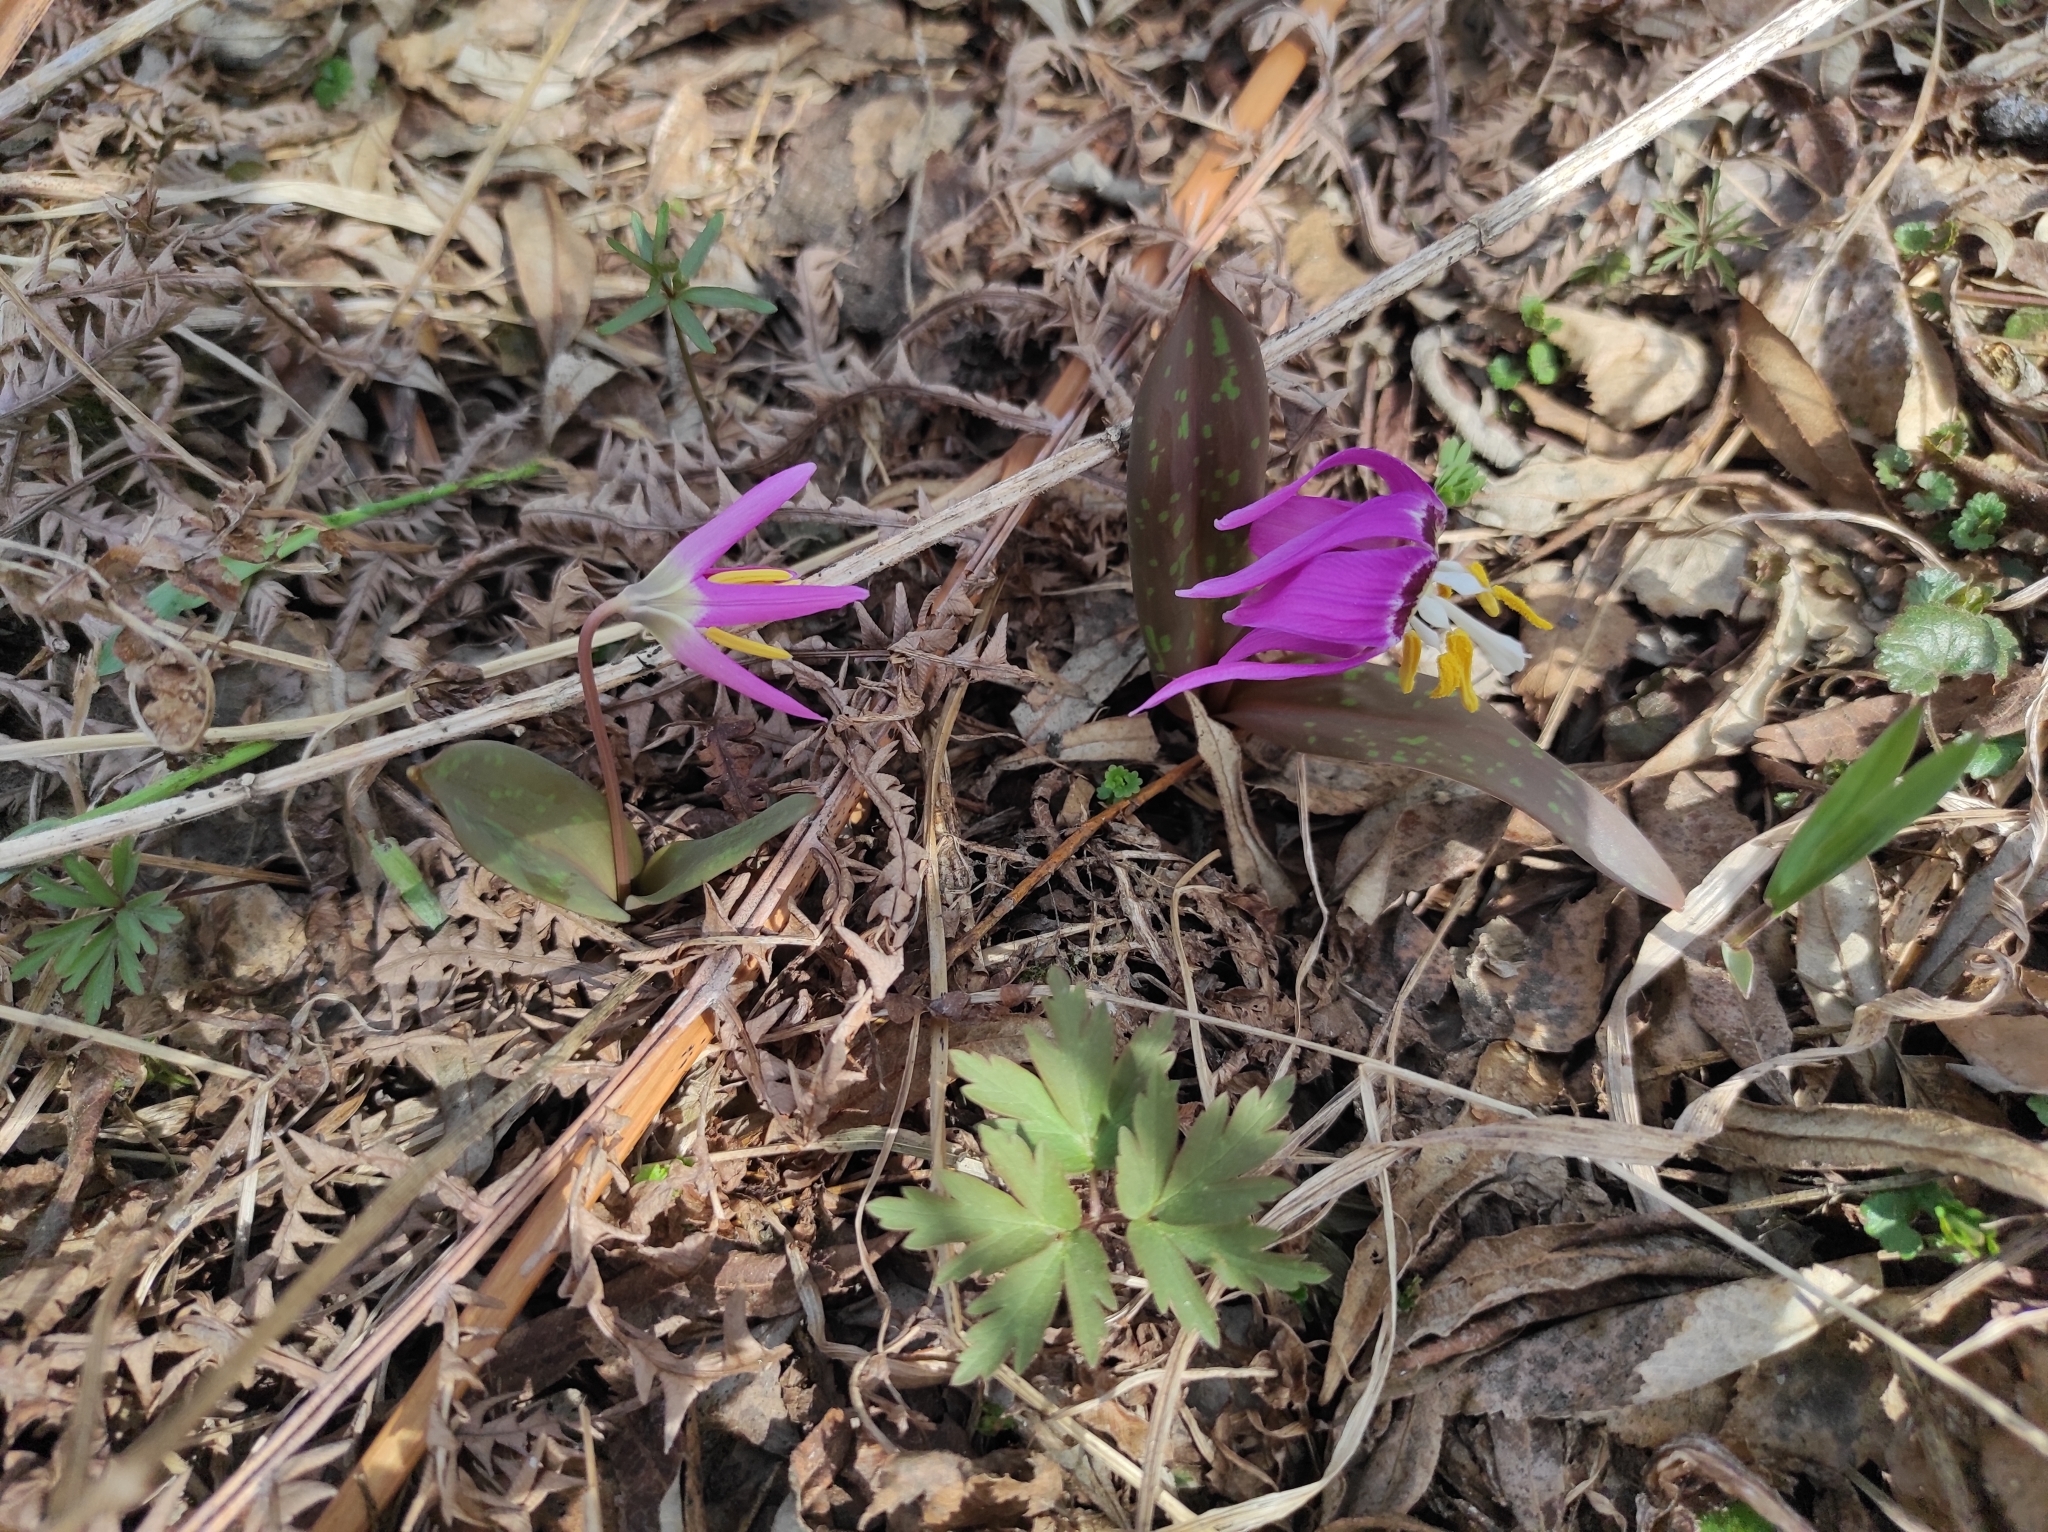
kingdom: Plantae
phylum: Tracheophyta
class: Liliopsida
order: Liliales
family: Liliaceae
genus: Erythronium
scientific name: Erythronium sibiricum
